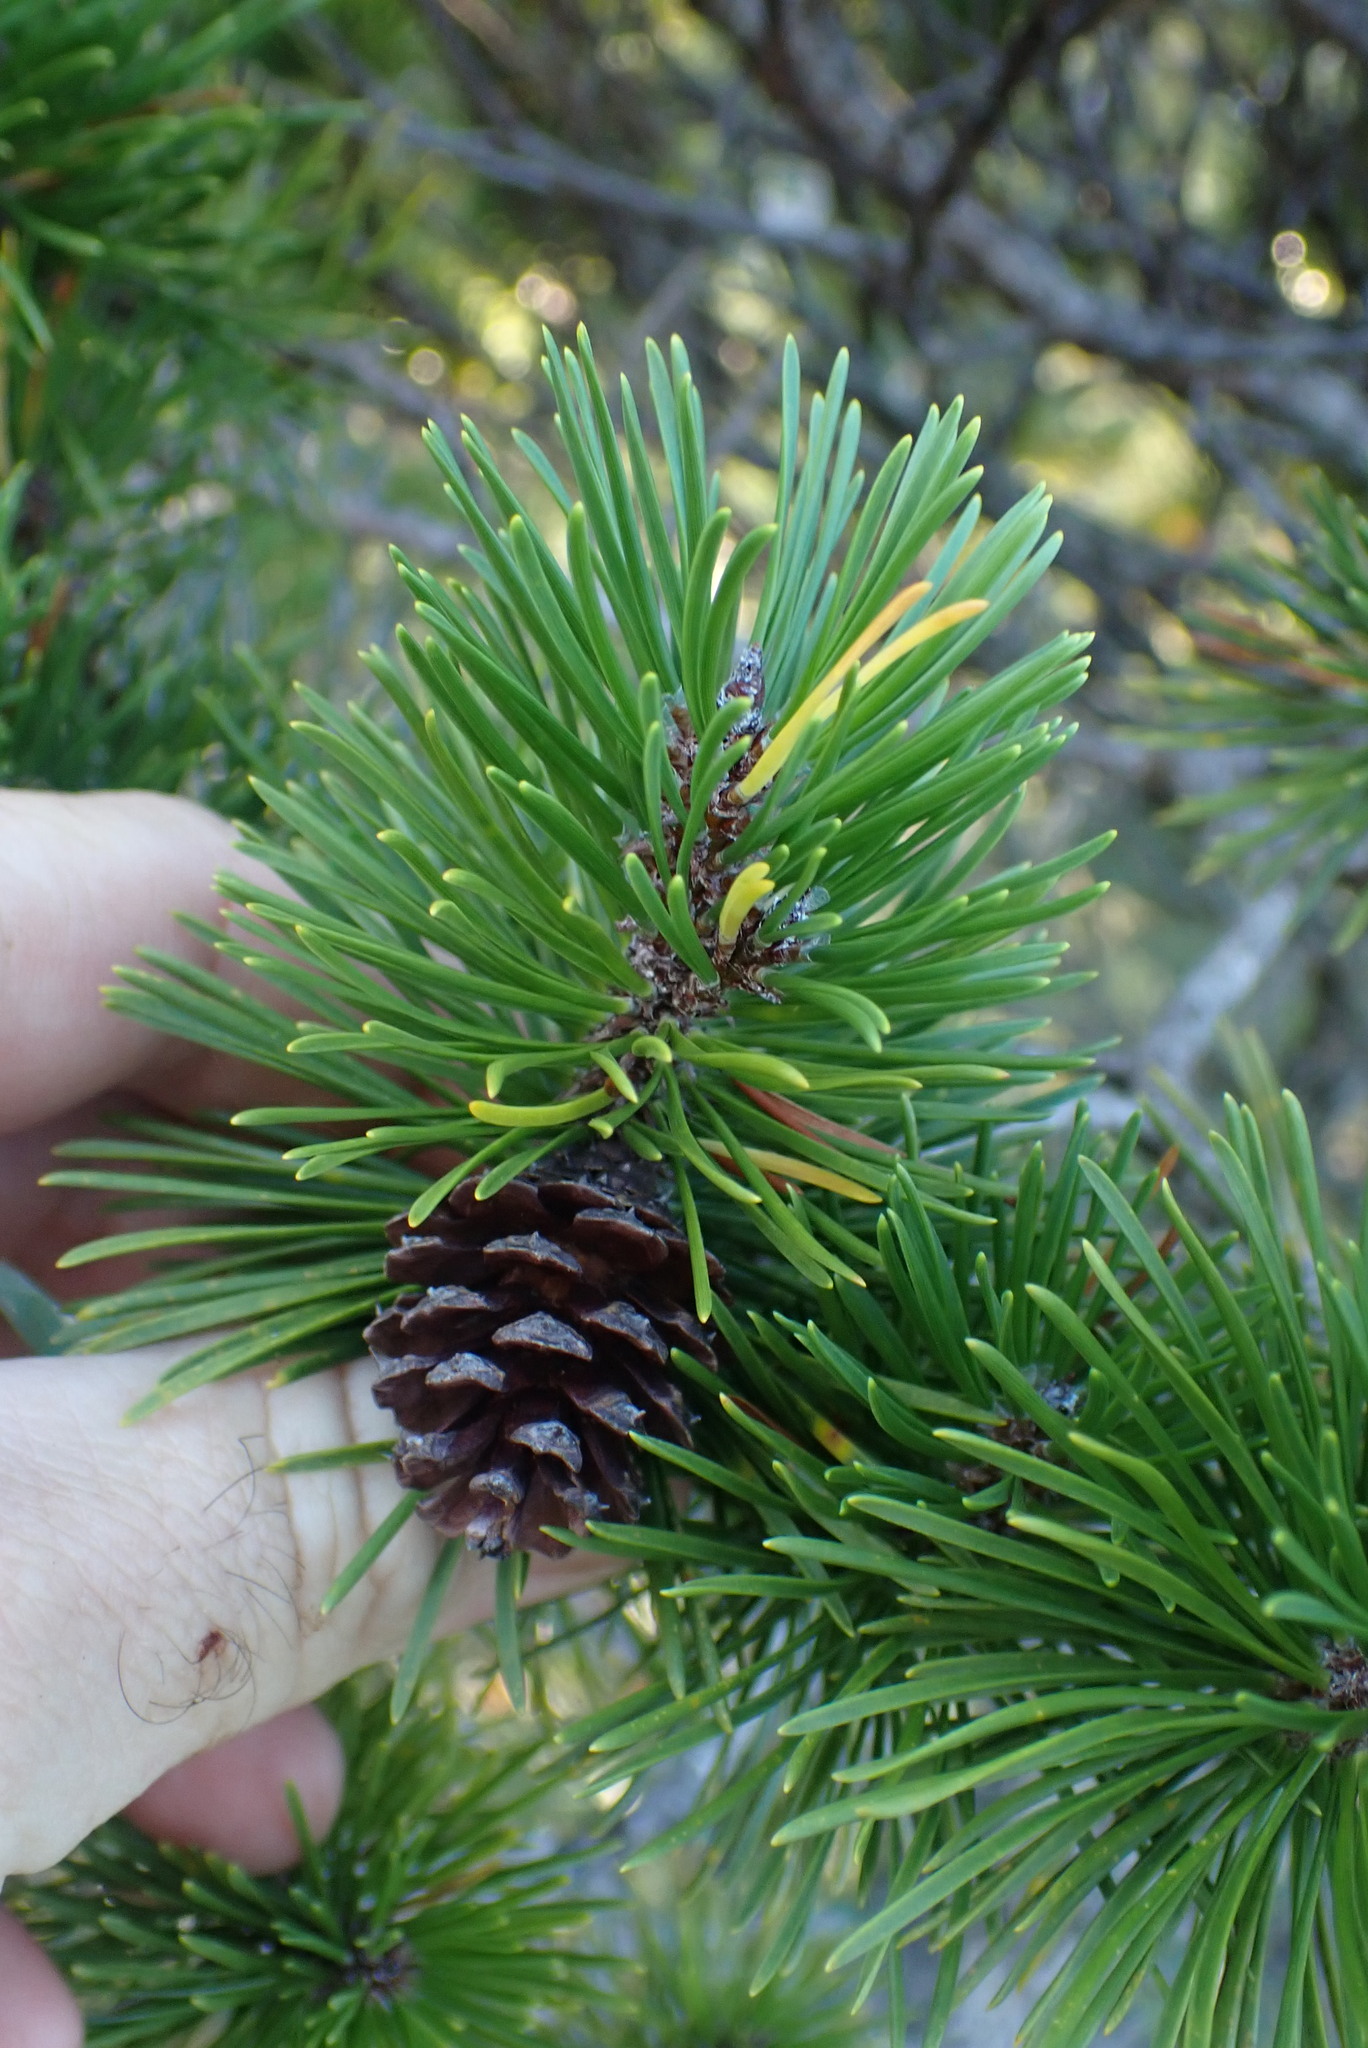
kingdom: Plantae
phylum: Tracheophyta
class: Pinopsida
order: Pinales
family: Pinaceae
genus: Pinus
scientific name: Pinus contorta
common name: Lodgepole pine
